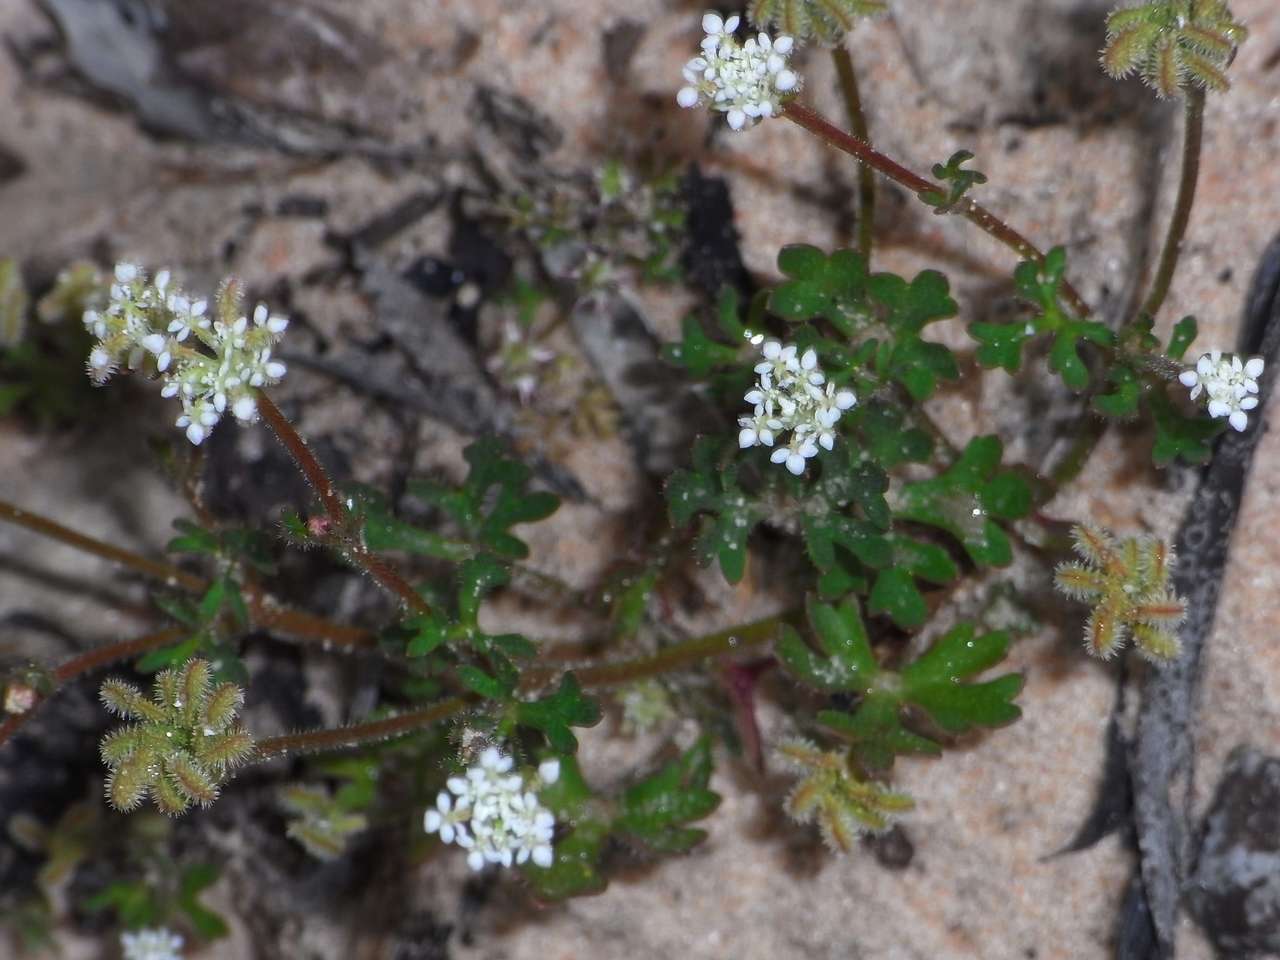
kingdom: Plantae
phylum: Tracheophyta
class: Magnoliopsida
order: Apiales
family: Araliaceae
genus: Trachymene
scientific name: Trachymene pilosa
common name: Dwarf trachymene
